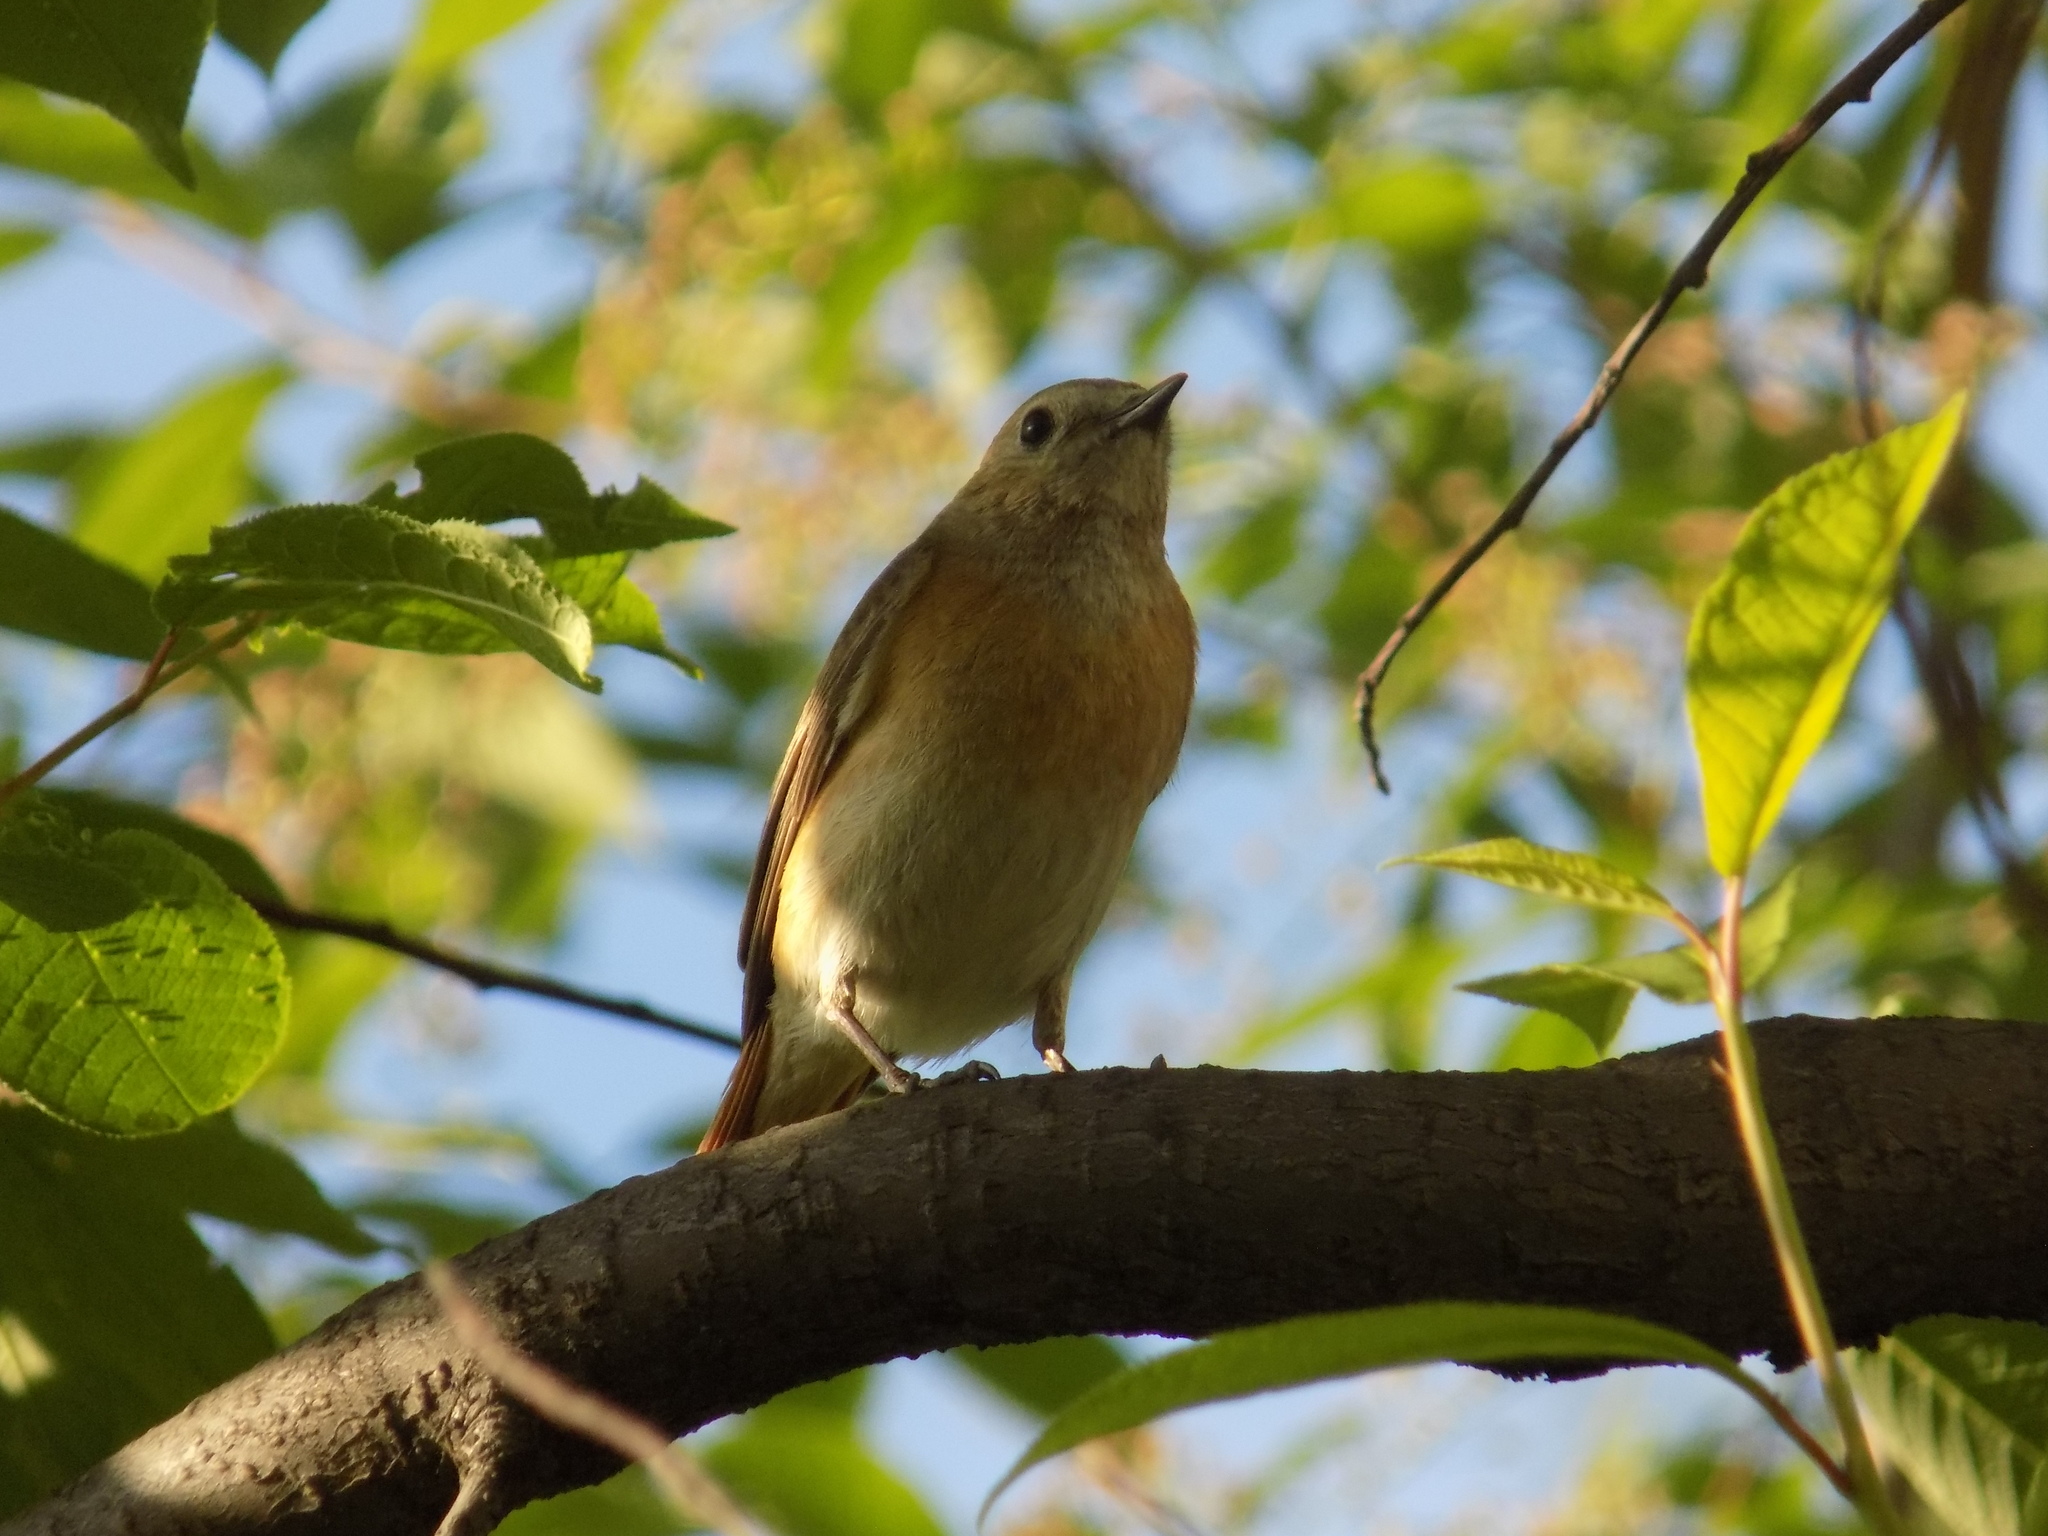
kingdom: Animalia
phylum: Chordata
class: Aves
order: Passeriformes
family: Muscicapidae
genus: Phoenicurus
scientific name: Phoenicurus phoenicurus
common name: Common redstart
